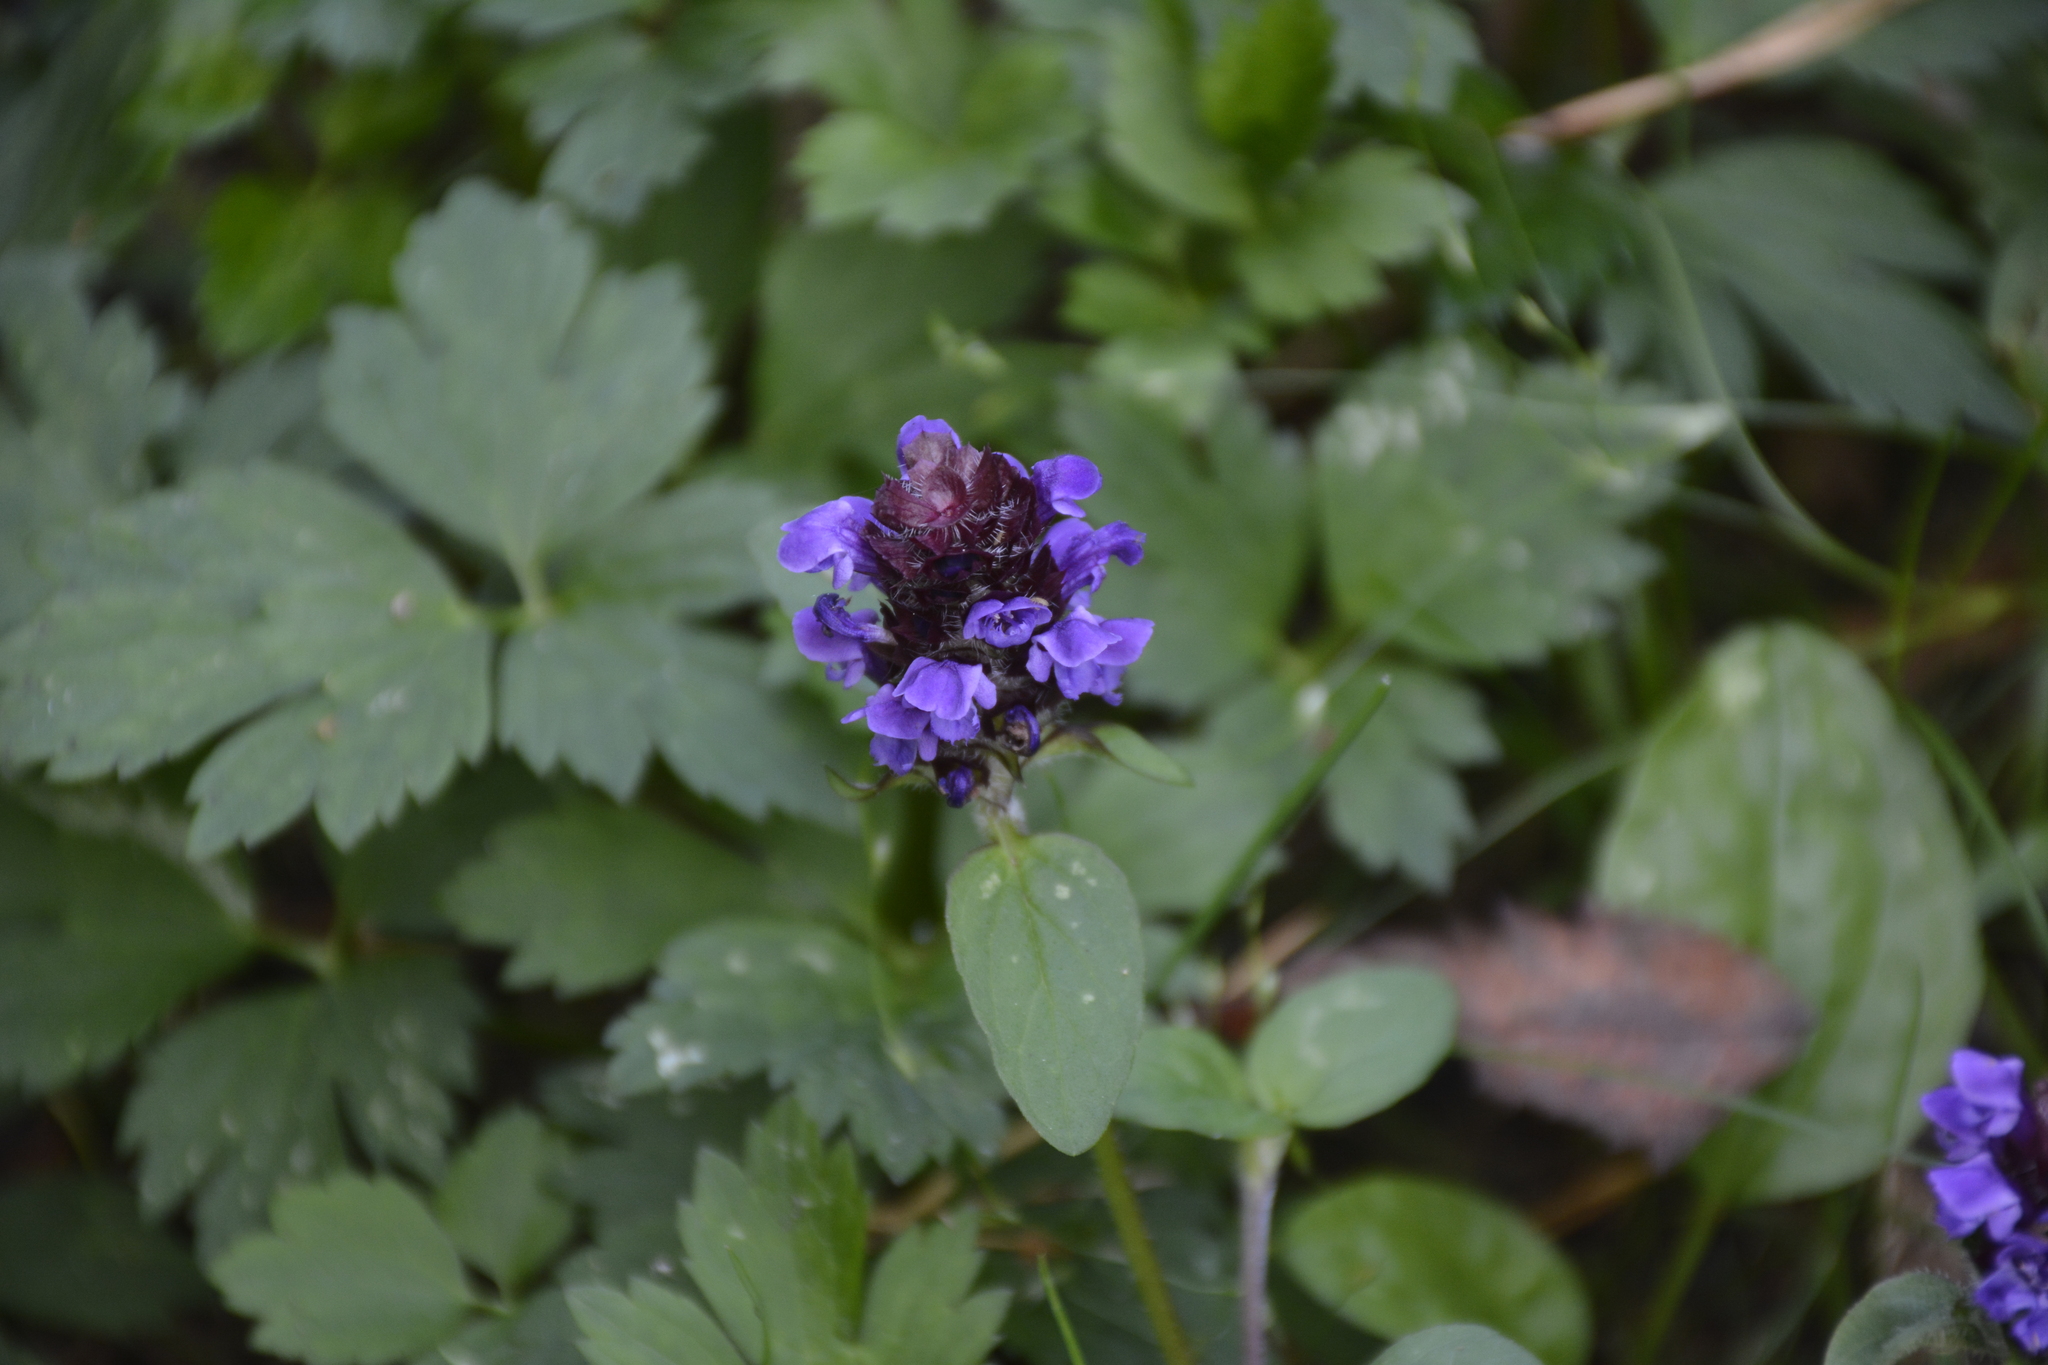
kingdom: Plantae
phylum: Tracheophyta
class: Magnoliopsida
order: Lamiales
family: Lamiaceae
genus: Prunella
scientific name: Prunella vulgaris
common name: Heal-all
